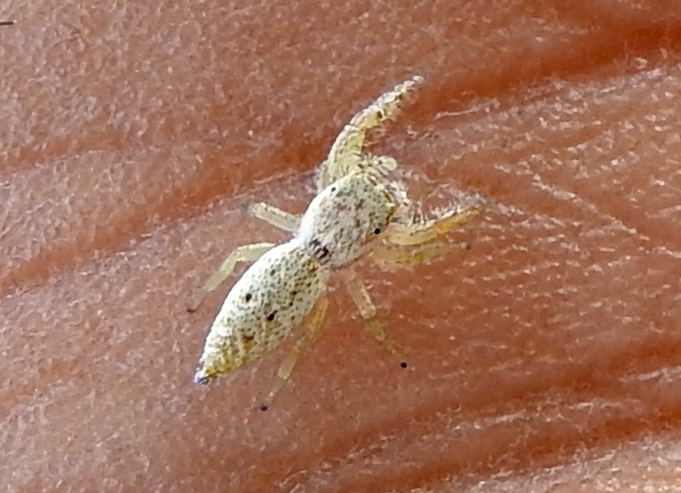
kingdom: Animalia
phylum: Arthropoda
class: Arachnida
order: Araneae
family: Salticidae
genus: Hentzia
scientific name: Hentzia
